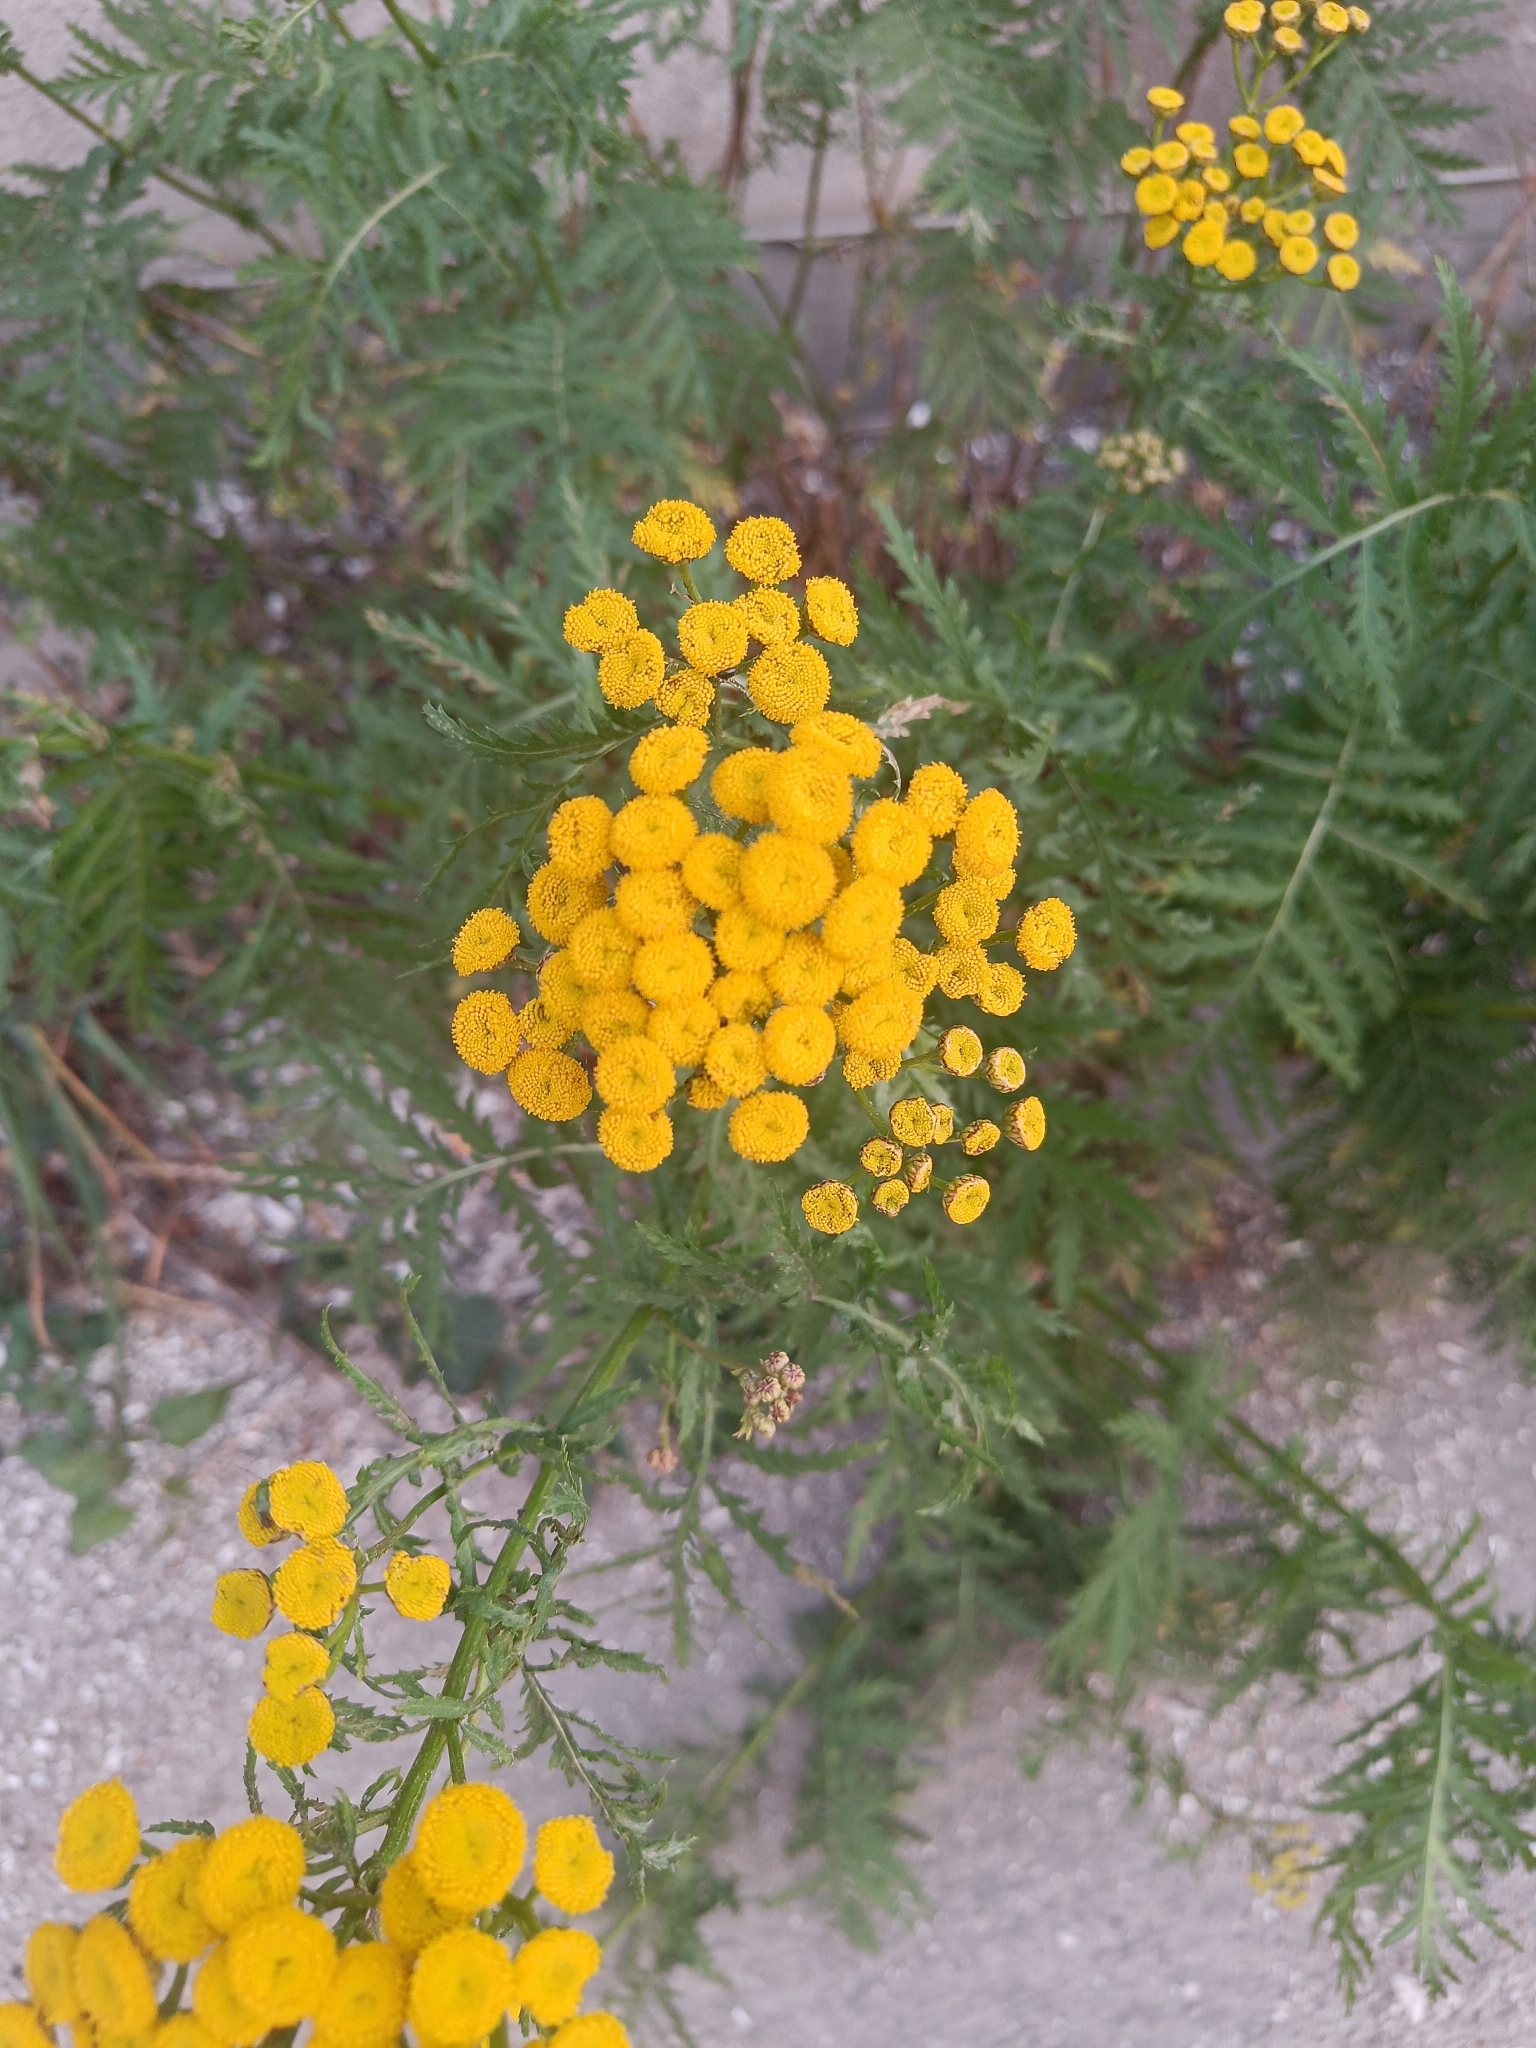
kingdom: Plantae
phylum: Tracheophyta
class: Magnoliopsida
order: Asterales
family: Asteraceae
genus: Tanacetum
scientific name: Tanacetum vulgare
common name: Common tansy
